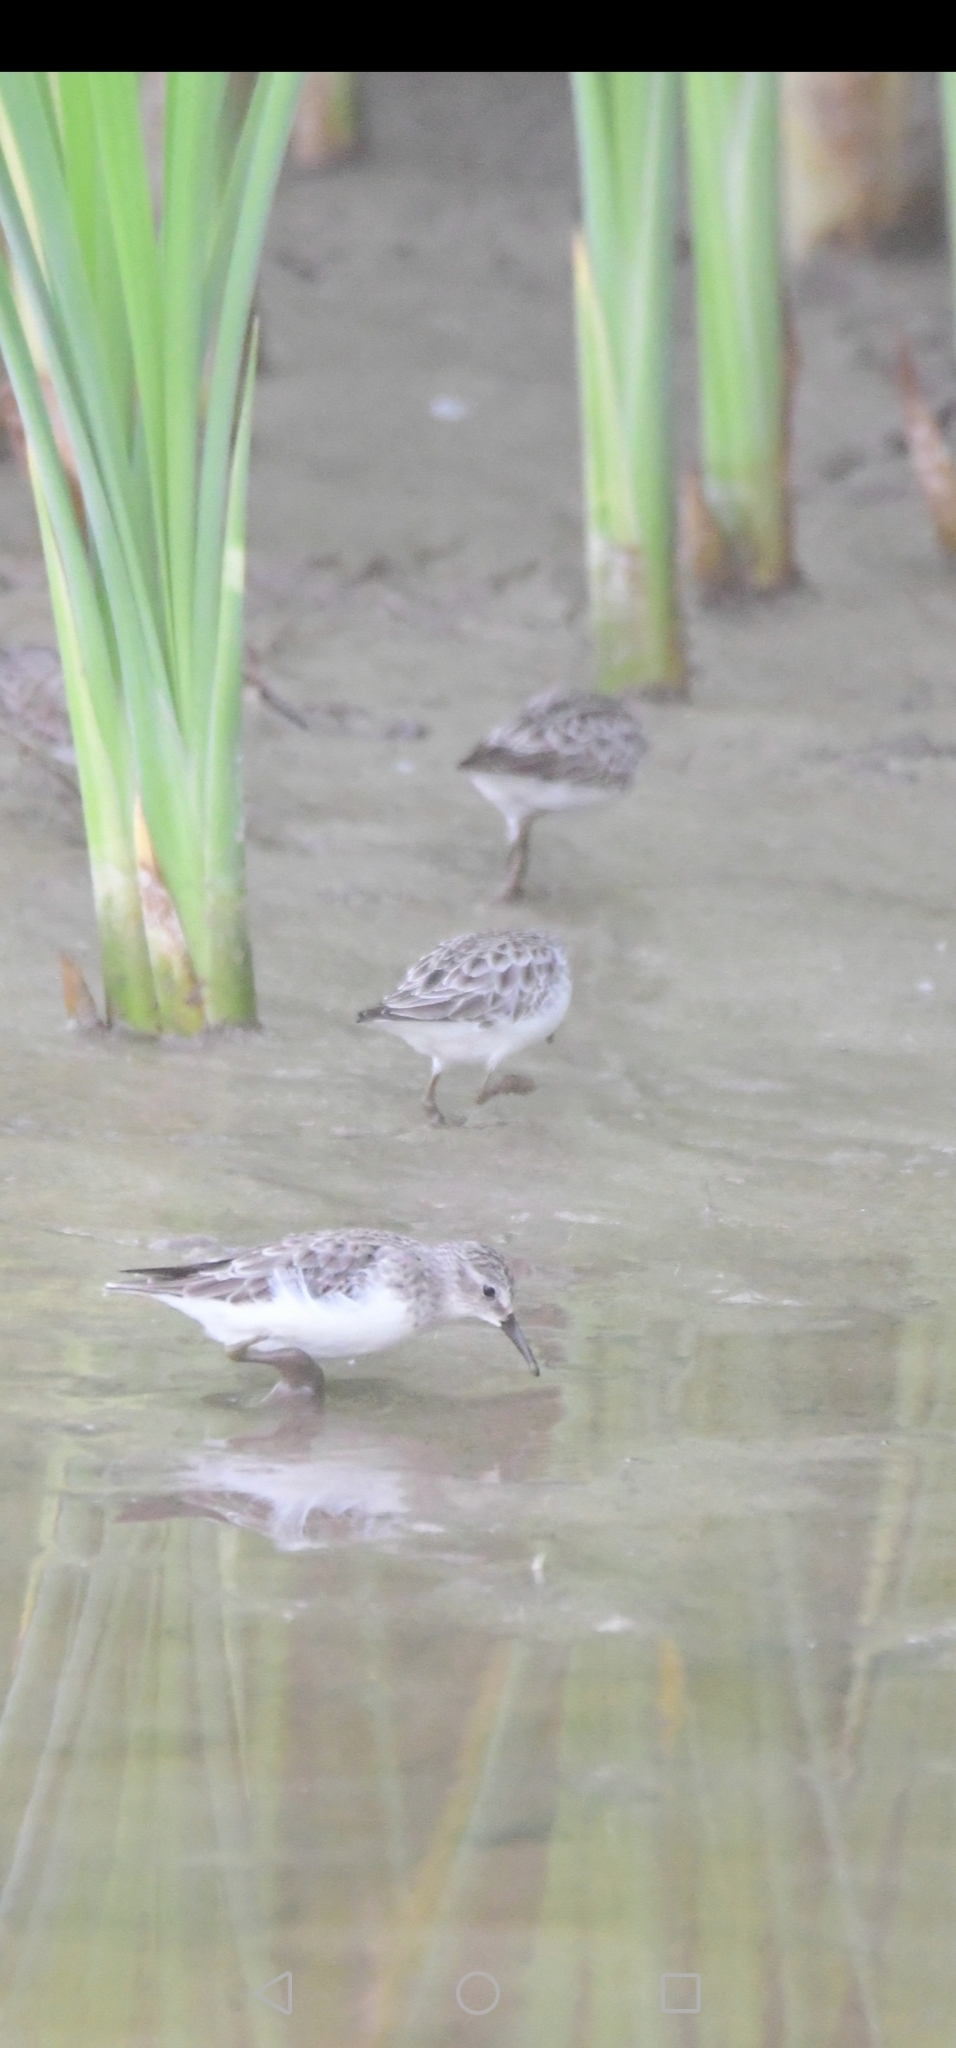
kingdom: Animalia
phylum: Chordata
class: Aves
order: Charadriiformes
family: Scolopacidae
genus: Calidris
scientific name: Calidris pusilla
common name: Semipalmated sandpiper
